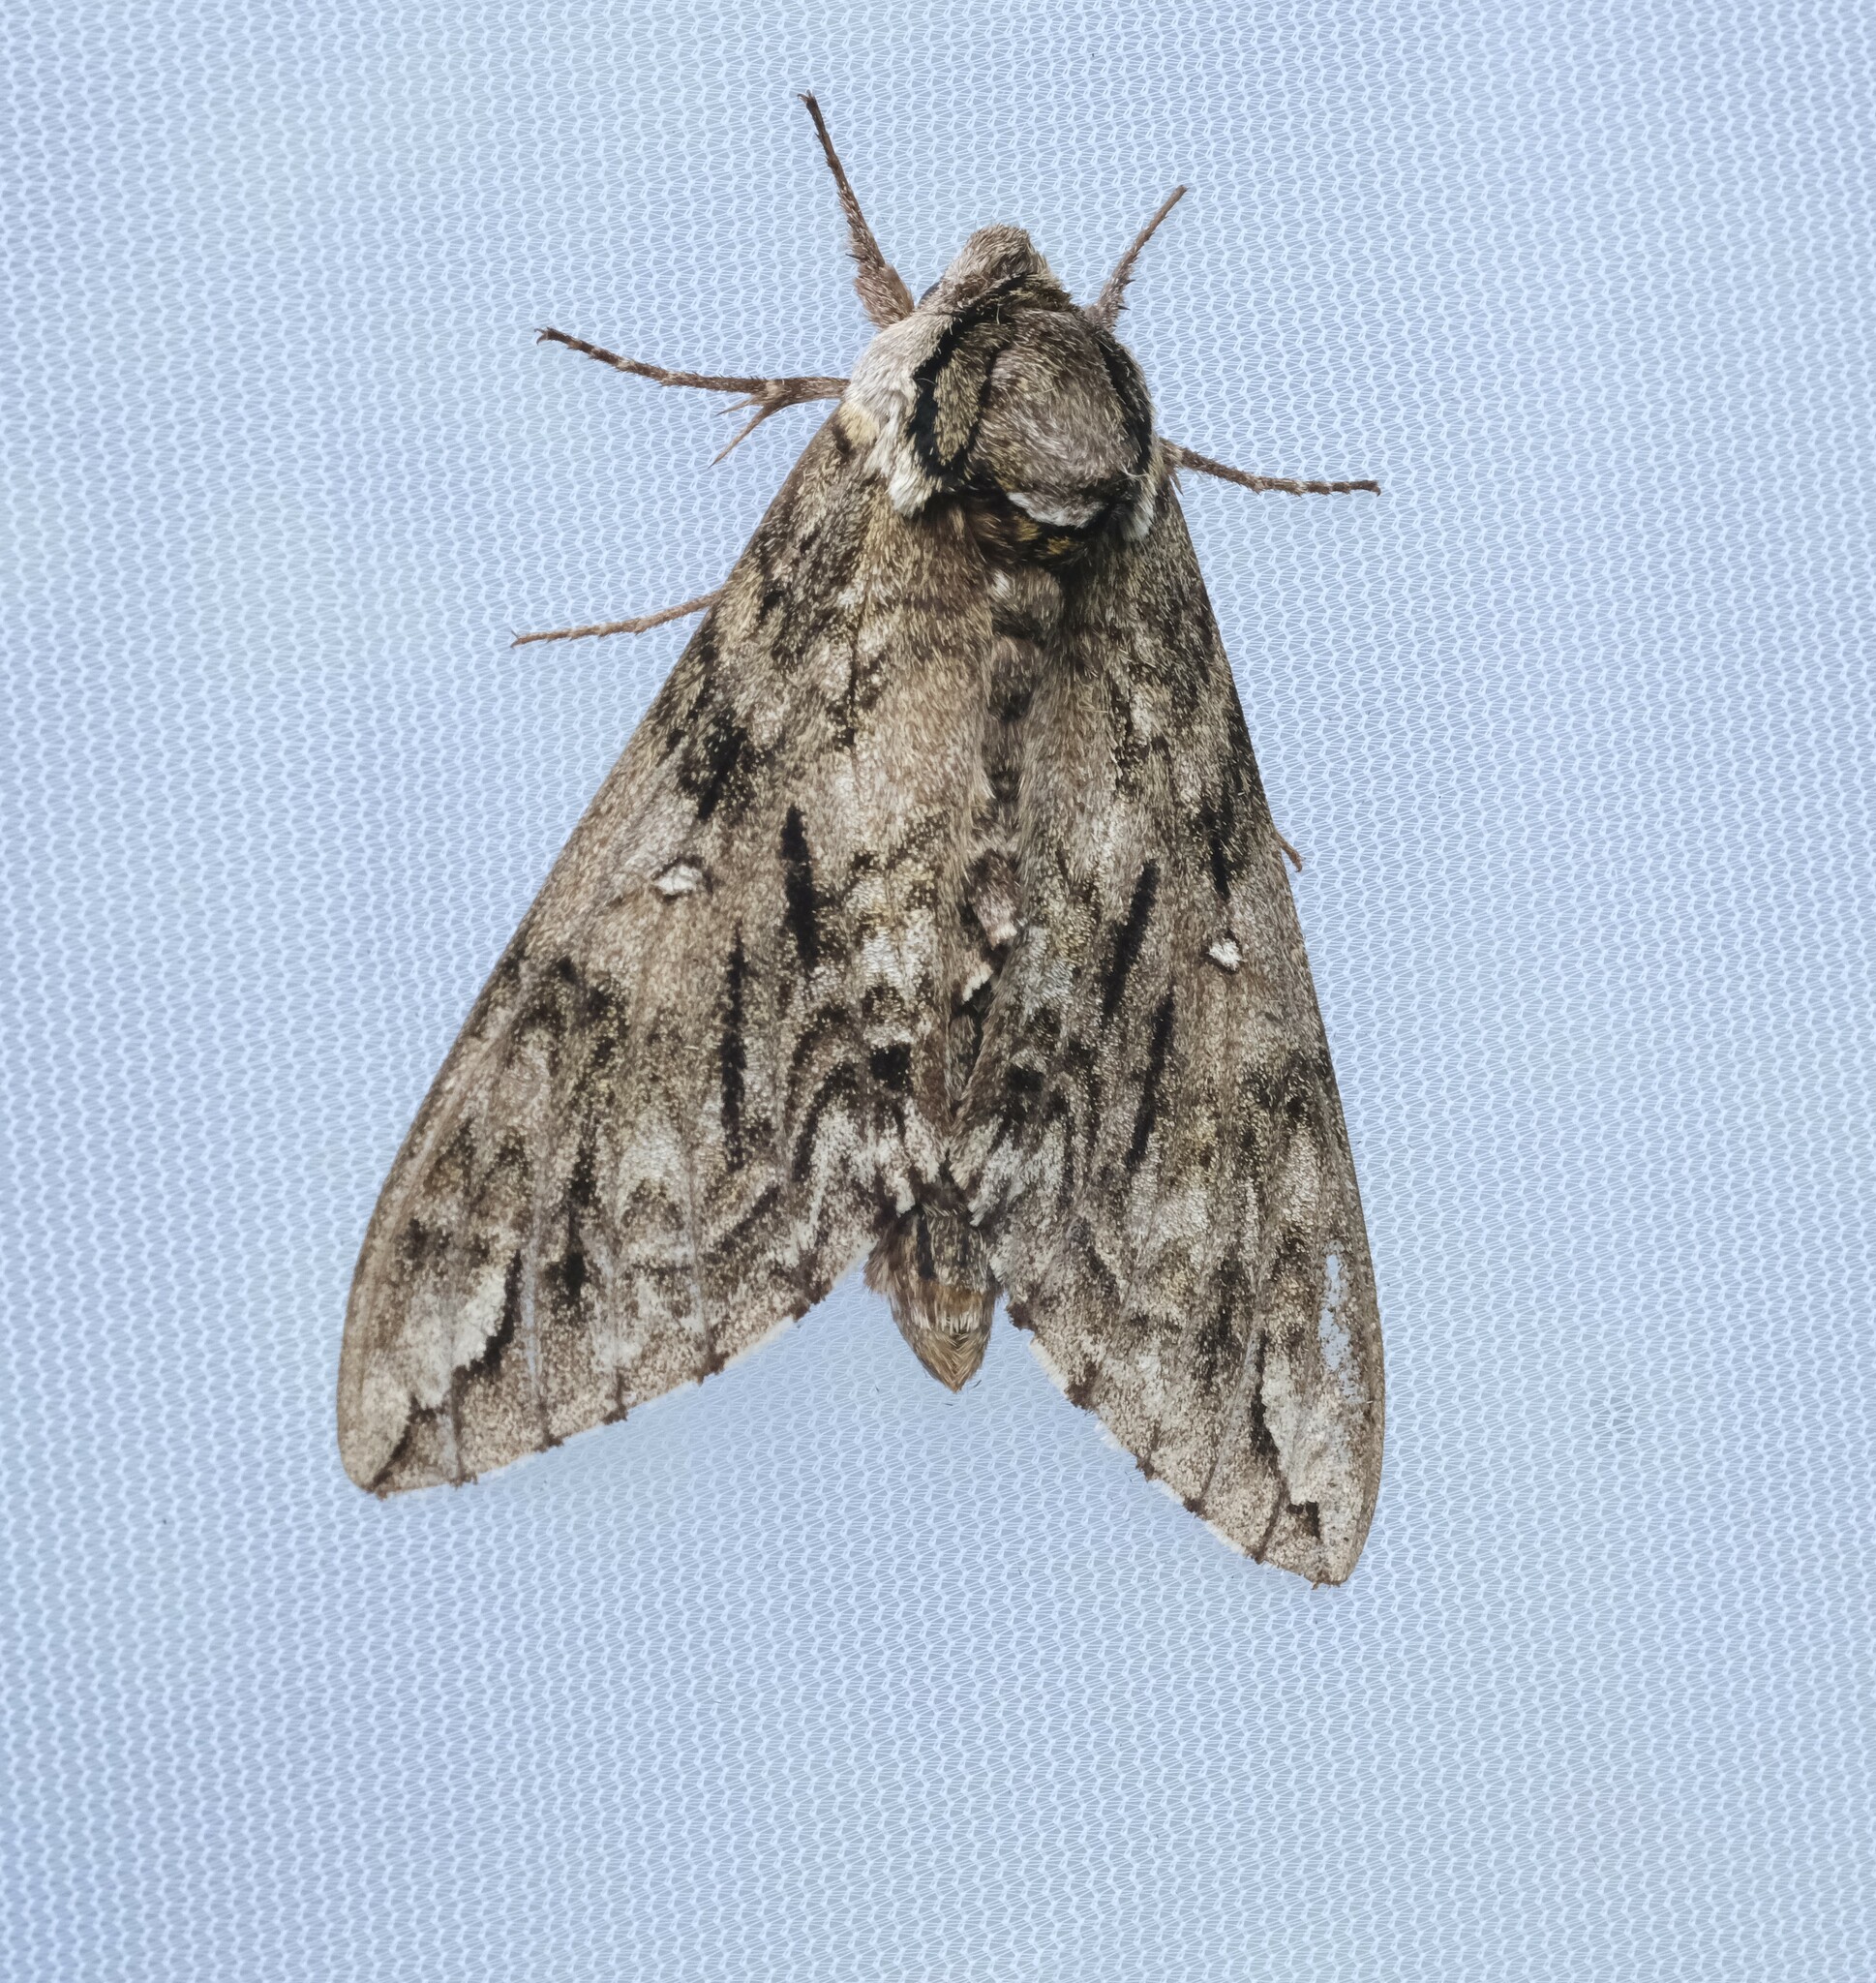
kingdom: Animalia
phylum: Arthropoda
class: Insecta
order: Lepidoptera
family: Sphingidae
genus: Ceratomia
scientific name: Ceratomia undulosa
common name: Waved sphinx
